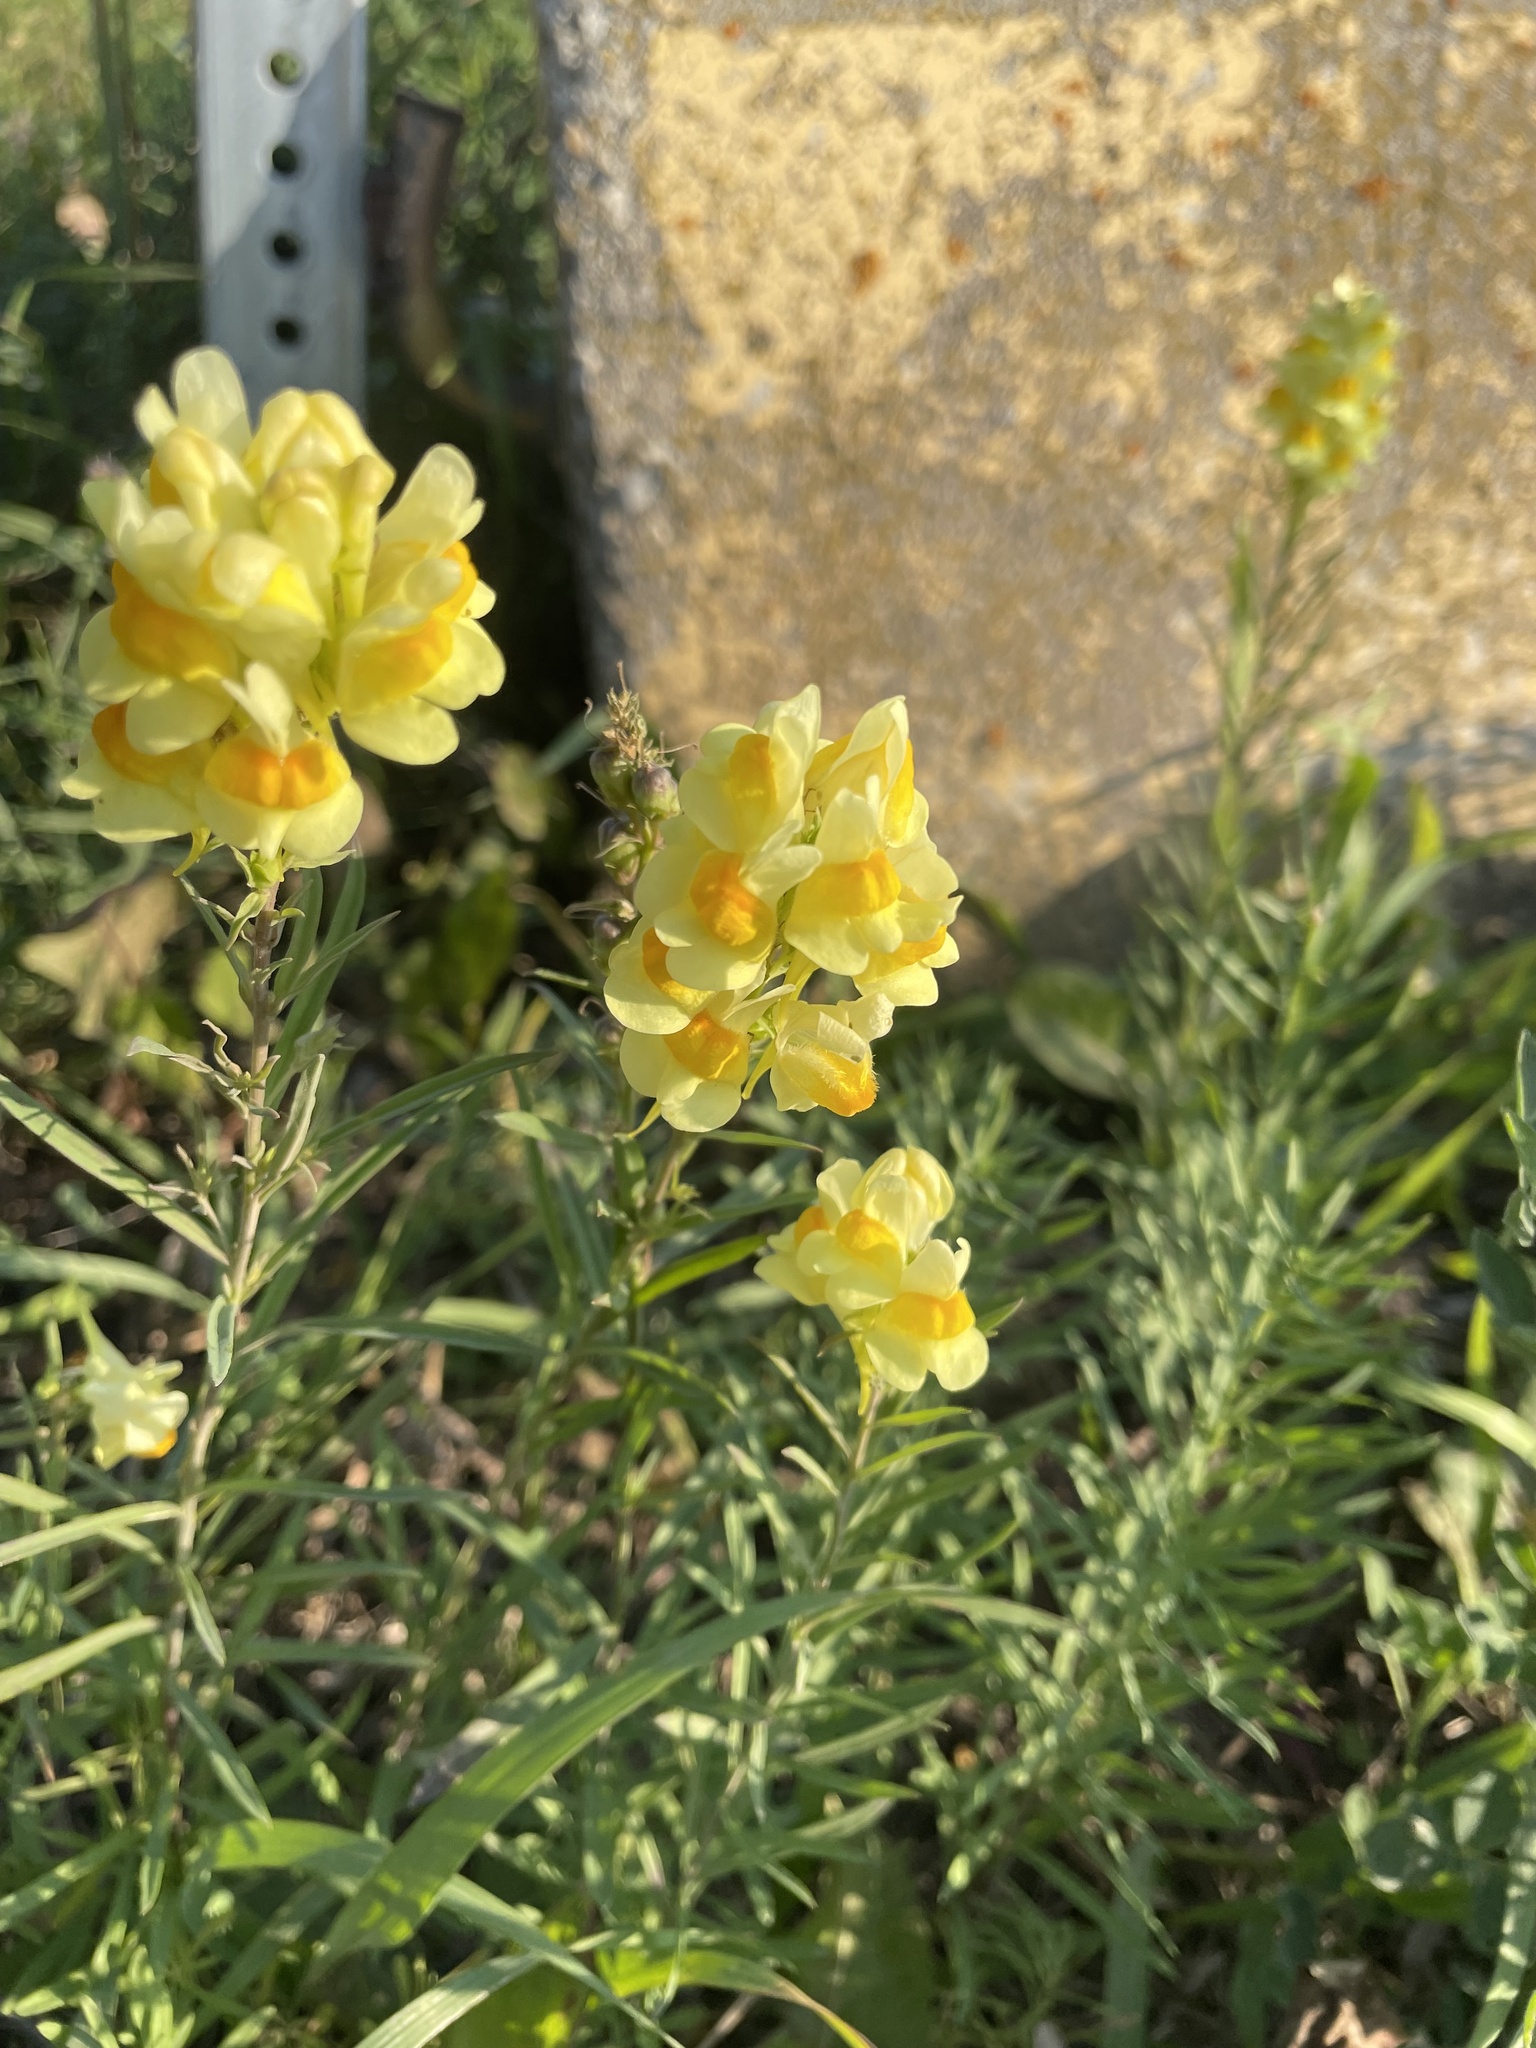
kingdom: Plantae
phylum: Tracheophyta
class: Magnoliopsida
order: Lamiales
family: Plantaginaceae
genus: Linaria
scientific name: Linaria vulgaris
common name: Butter and eggs
